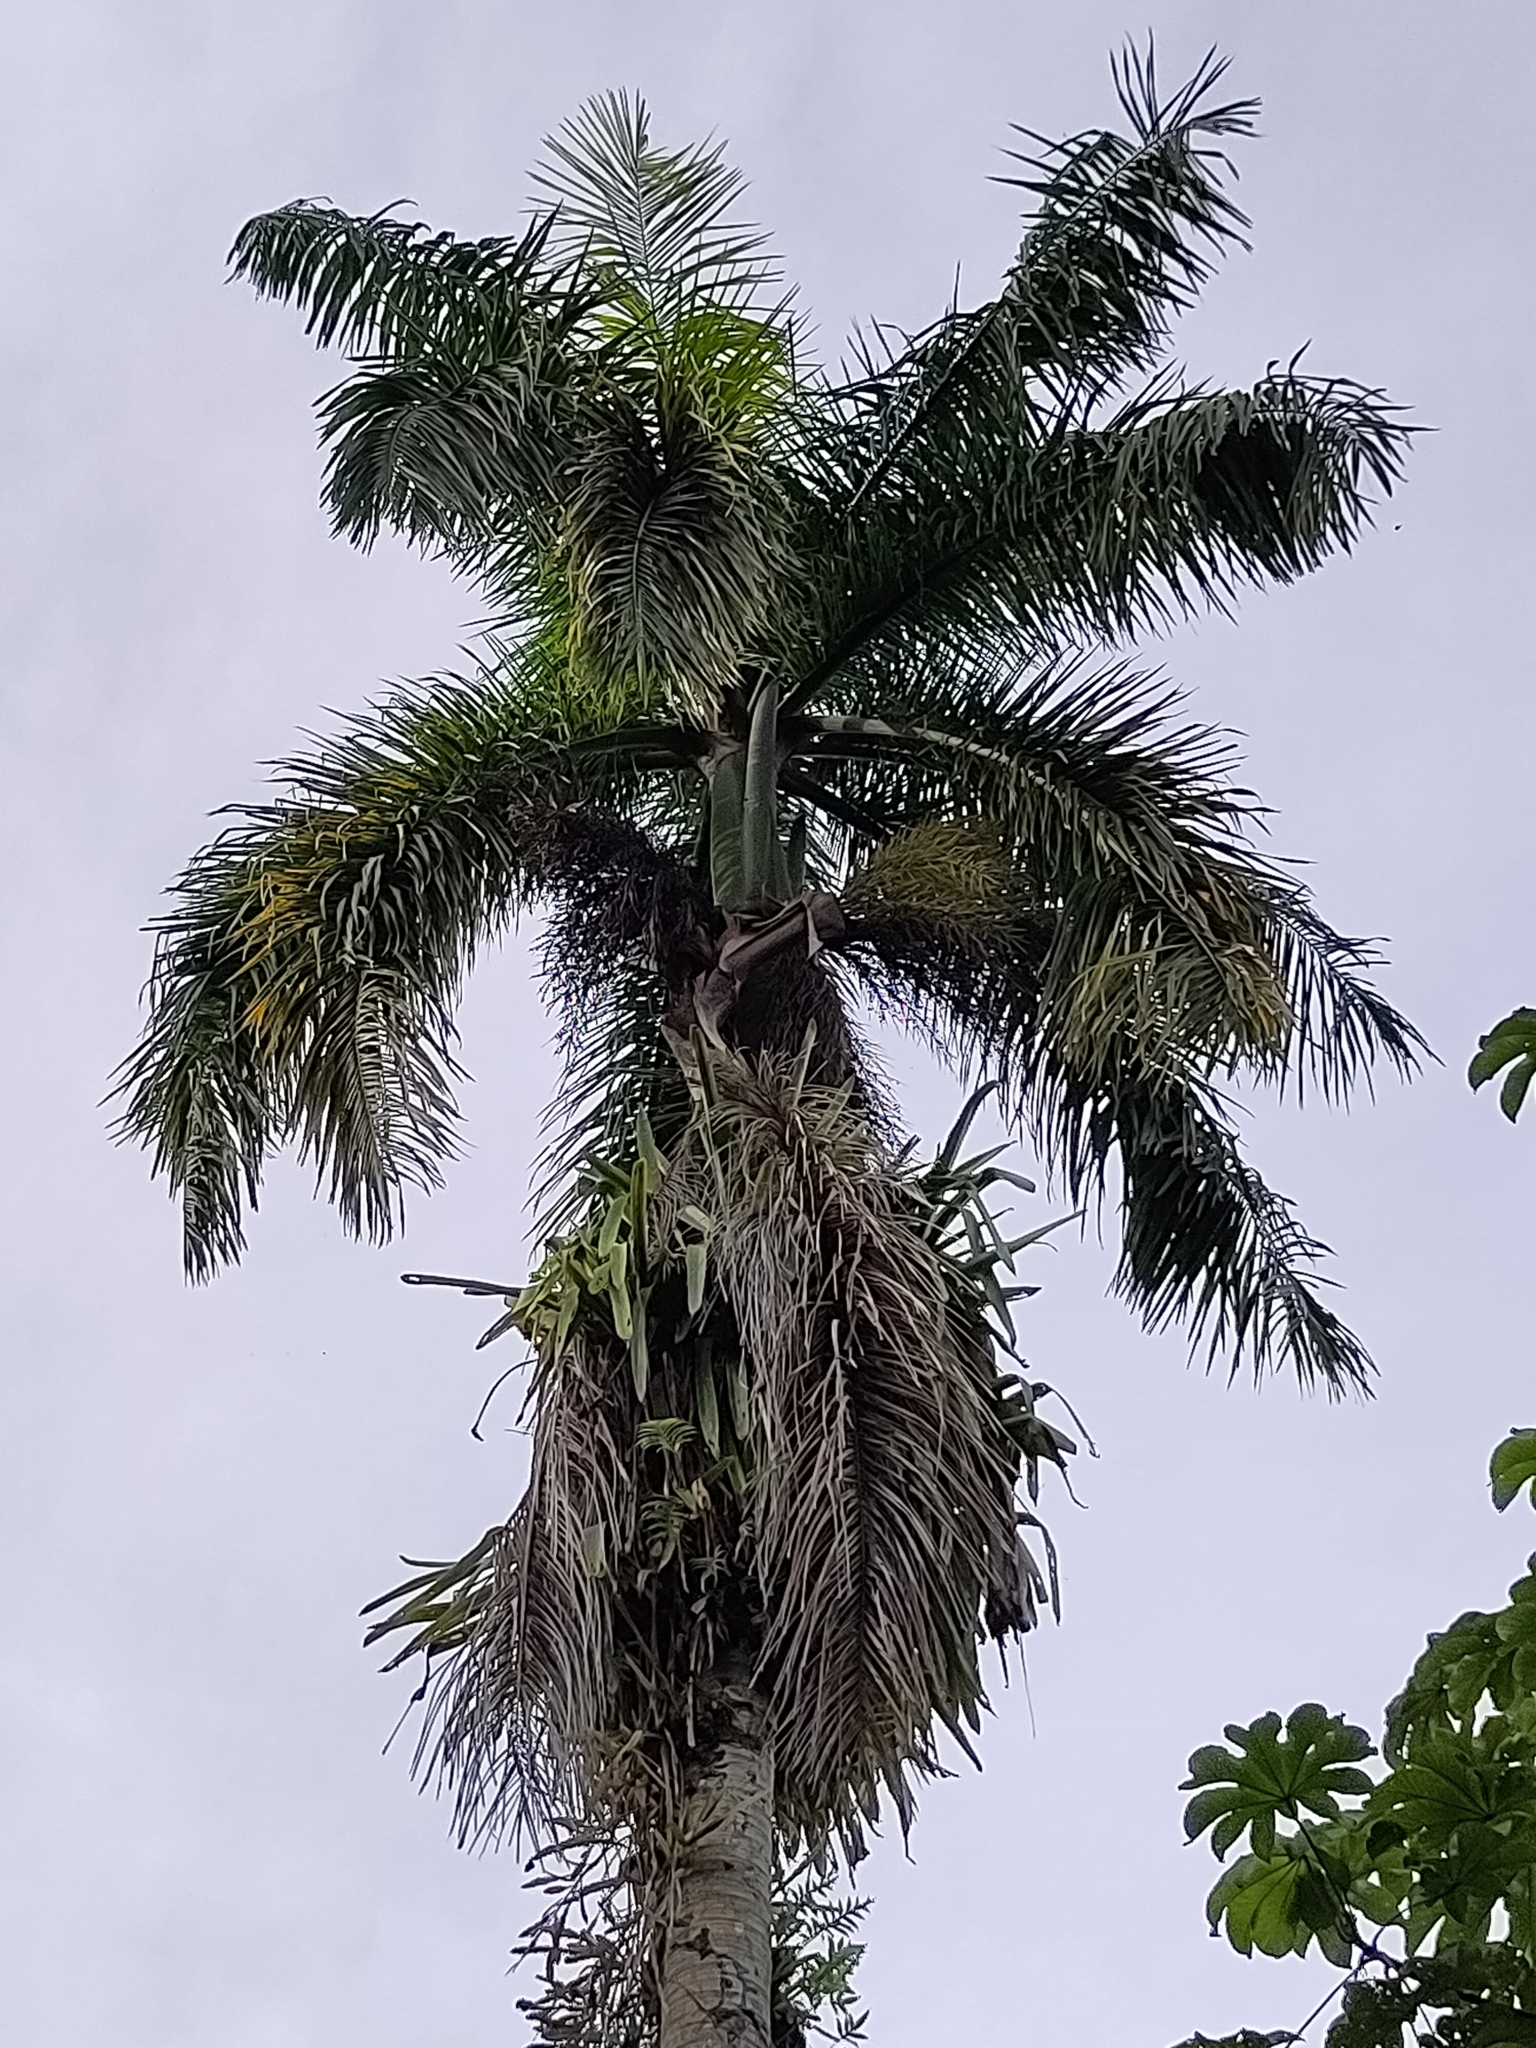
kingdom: Plantae
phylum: Tracheophyta
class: Liliopsida
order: Arecales
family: Arecaceae
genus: Roystonea
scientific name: Roystonea regia
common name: Florida royal palm
